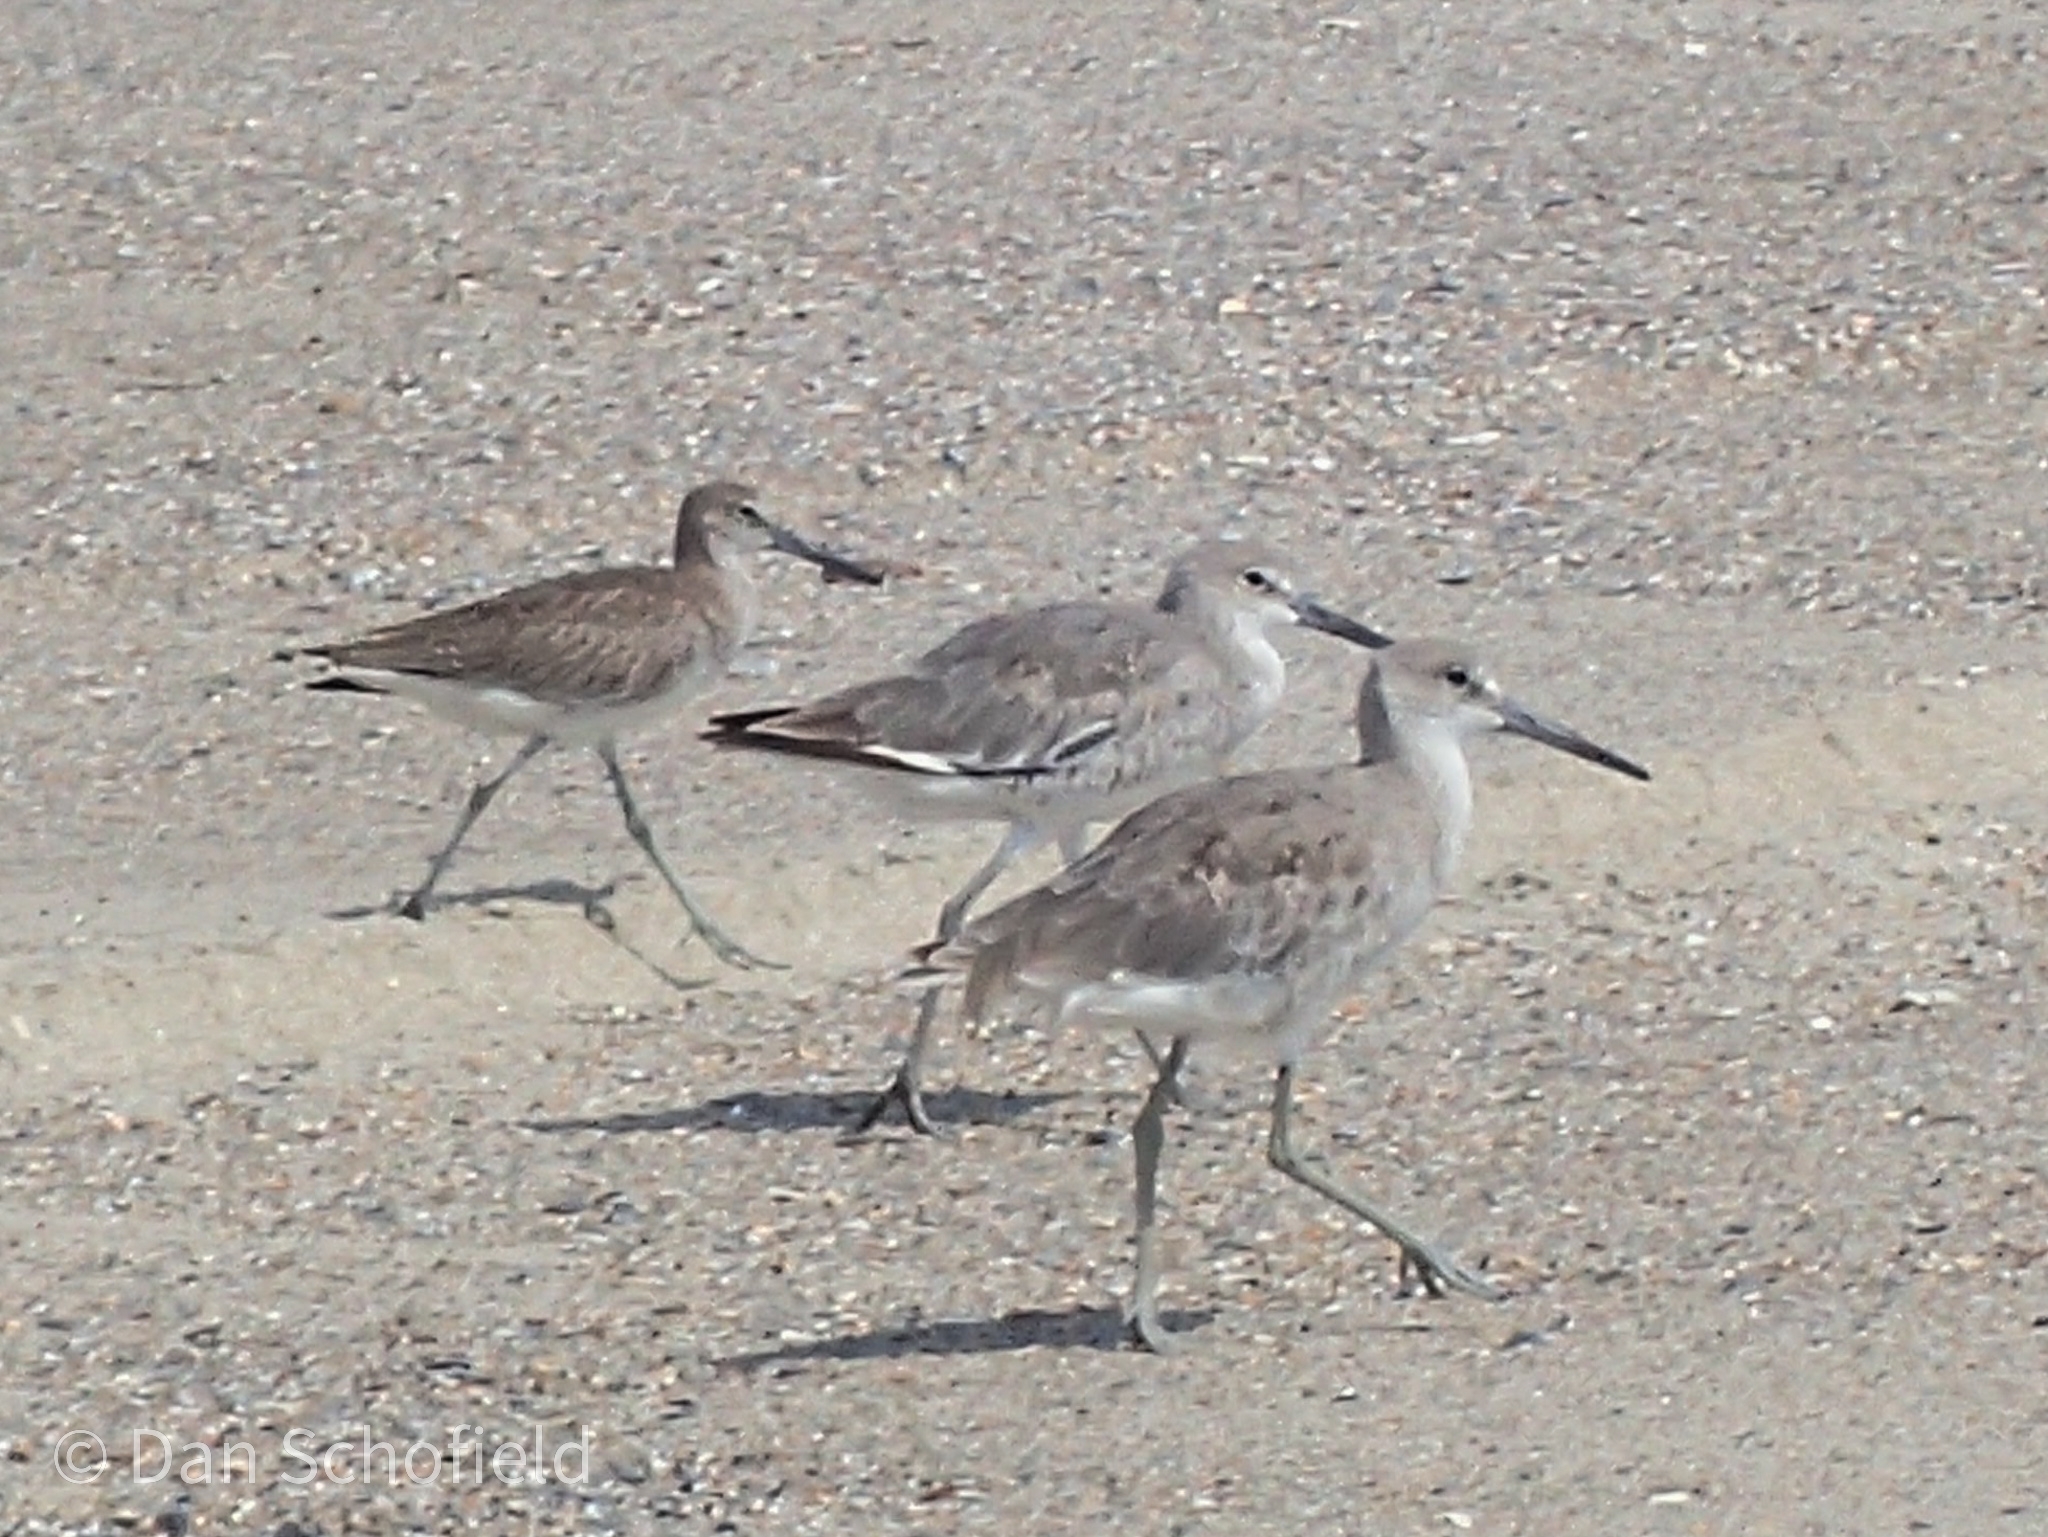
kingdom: Animalia
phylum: Chordata
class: Aves
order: Charadriiformes
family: Scolopacidae
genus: Tringa
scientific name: Tringa semipalmata
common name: Willet
